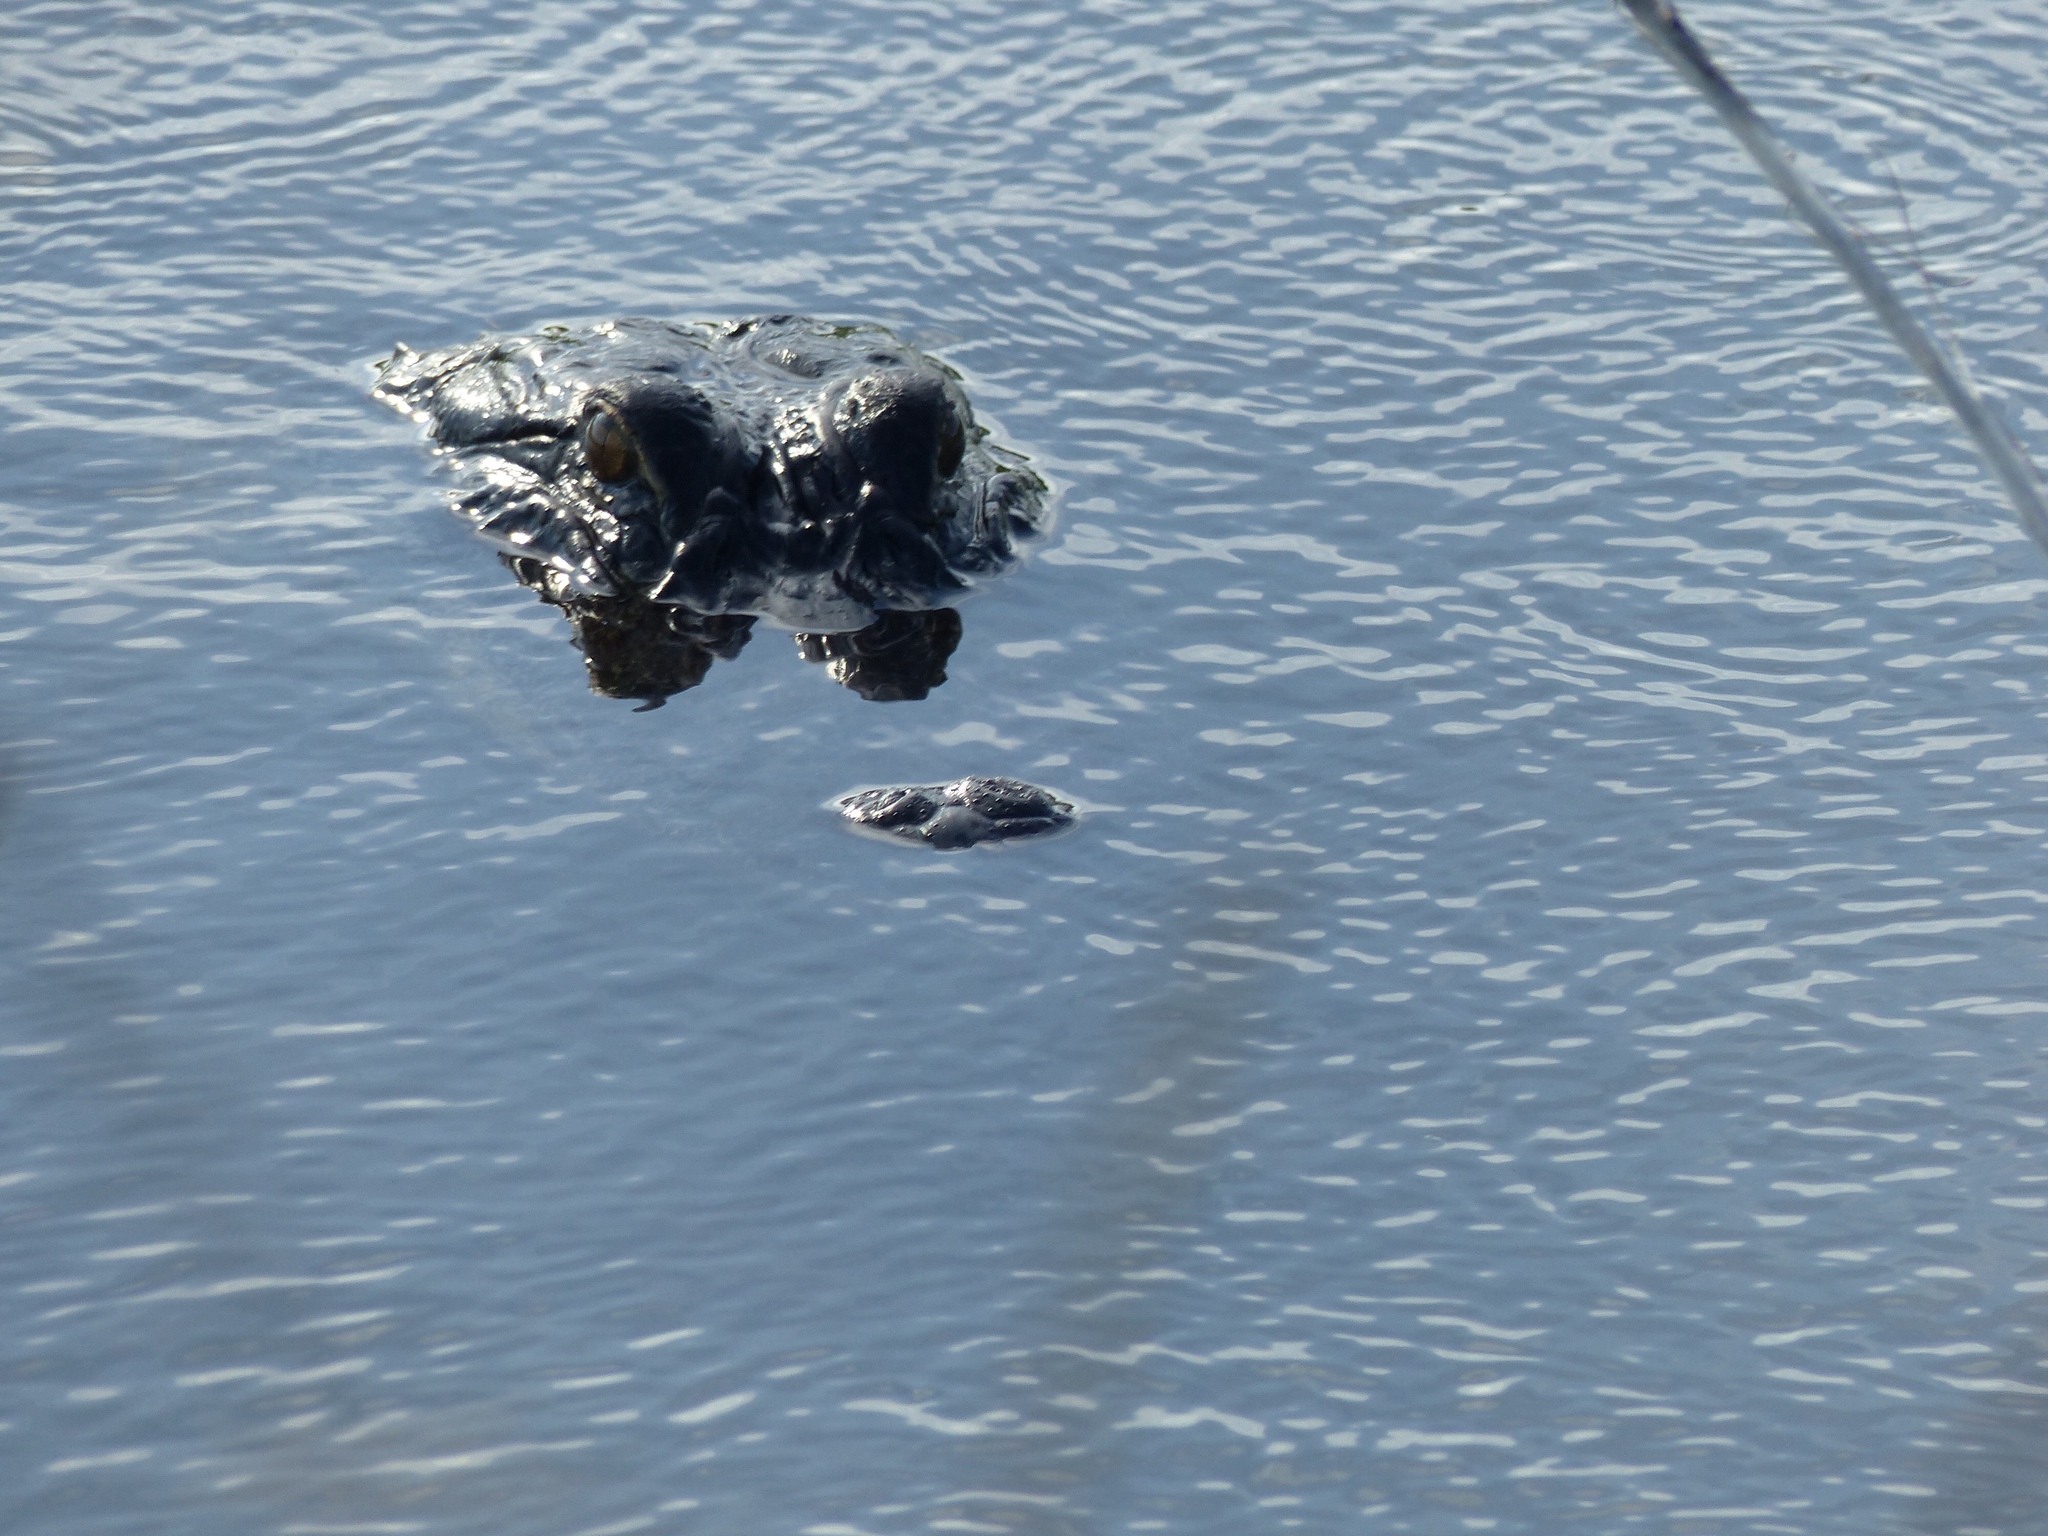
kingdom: Animalia
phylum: Chordata
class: Crocodylia
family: Alligatoridae
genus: Alligator
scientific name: Alligator mississippiensis
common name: American alligator
